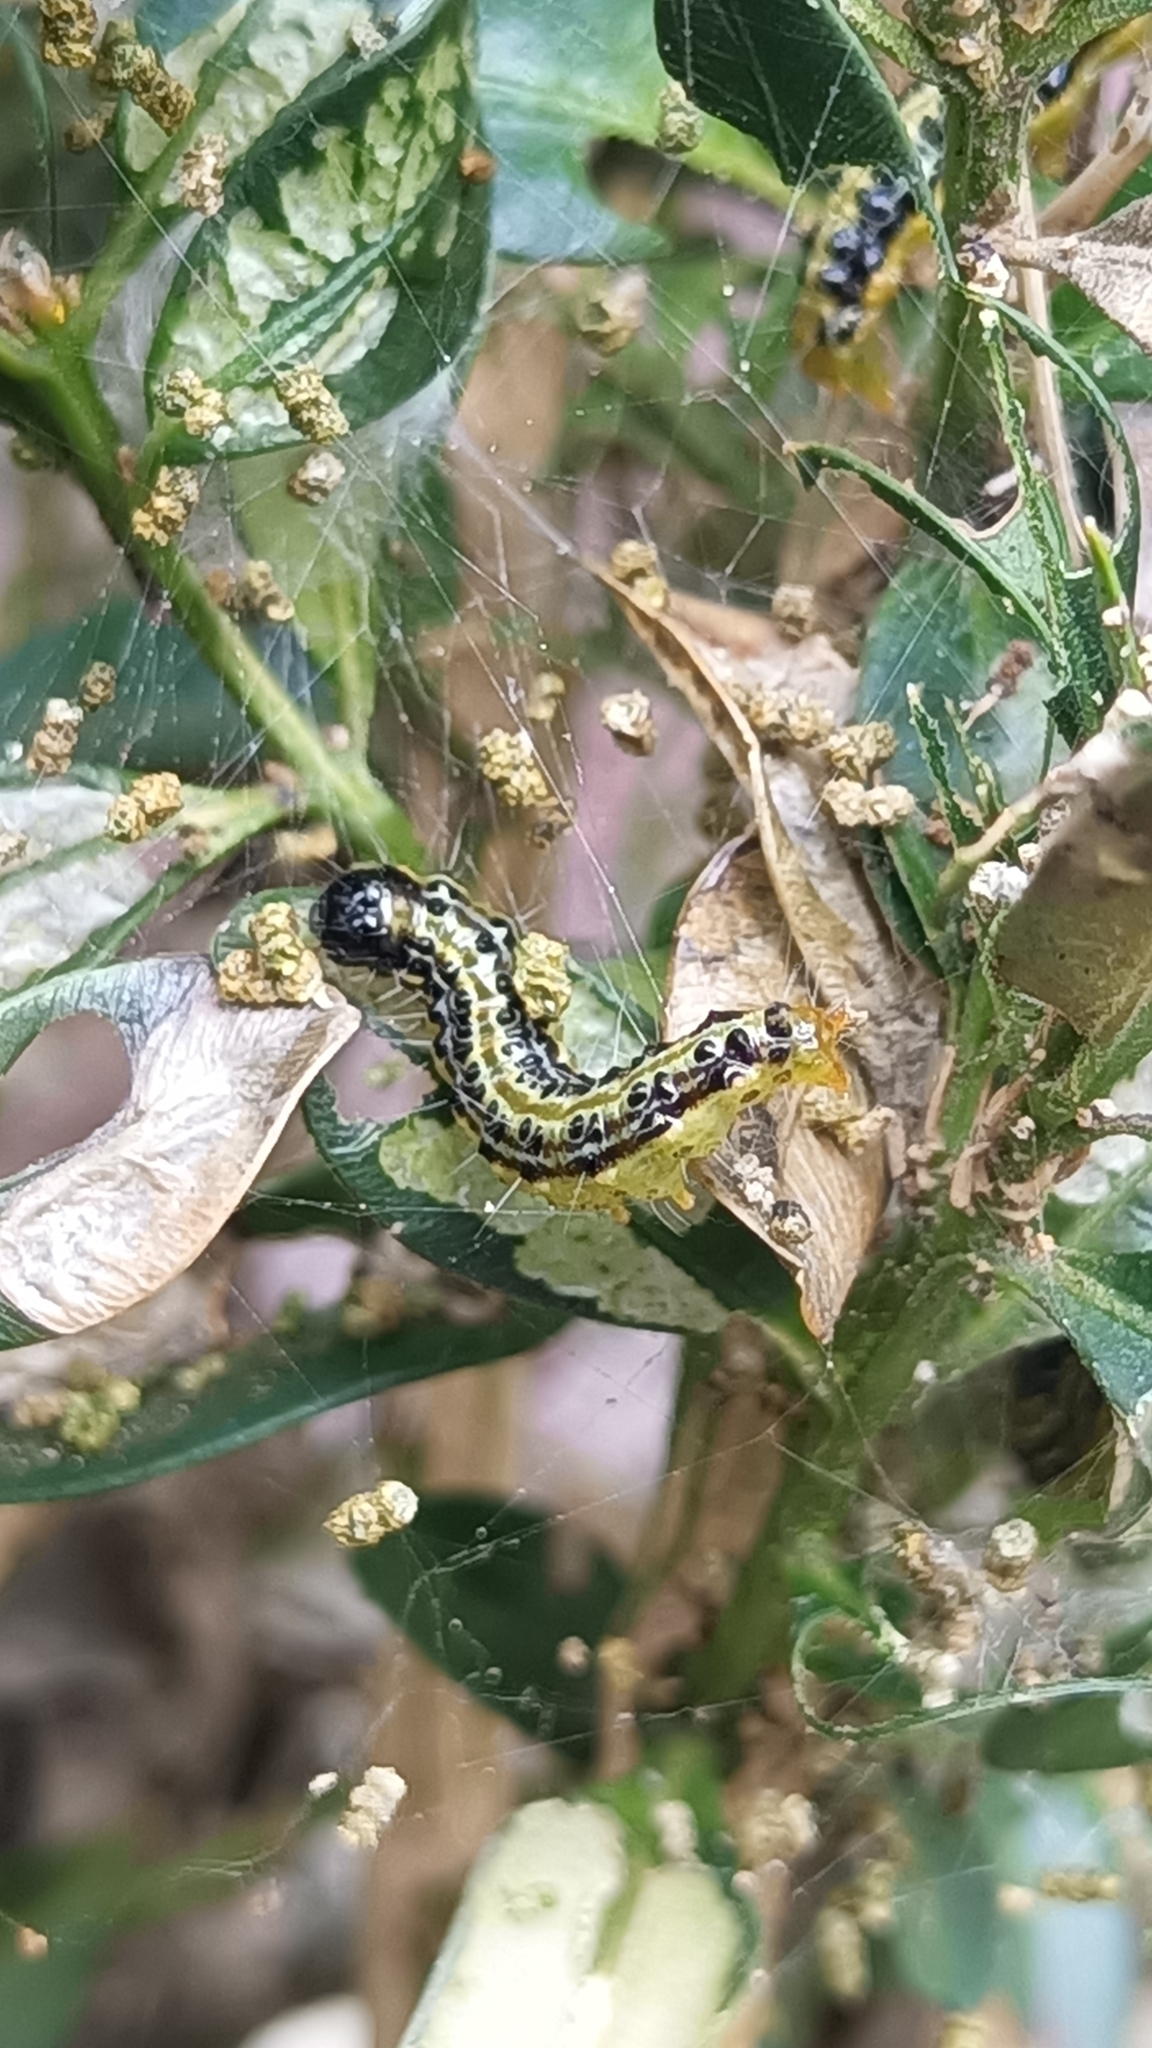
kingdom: Animalia
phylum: Arthropoda
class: Insecta
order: Lepidoptera
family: Crambidae
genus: Cydalima
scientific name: Cydalima perspectalis
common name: Box tree moth
